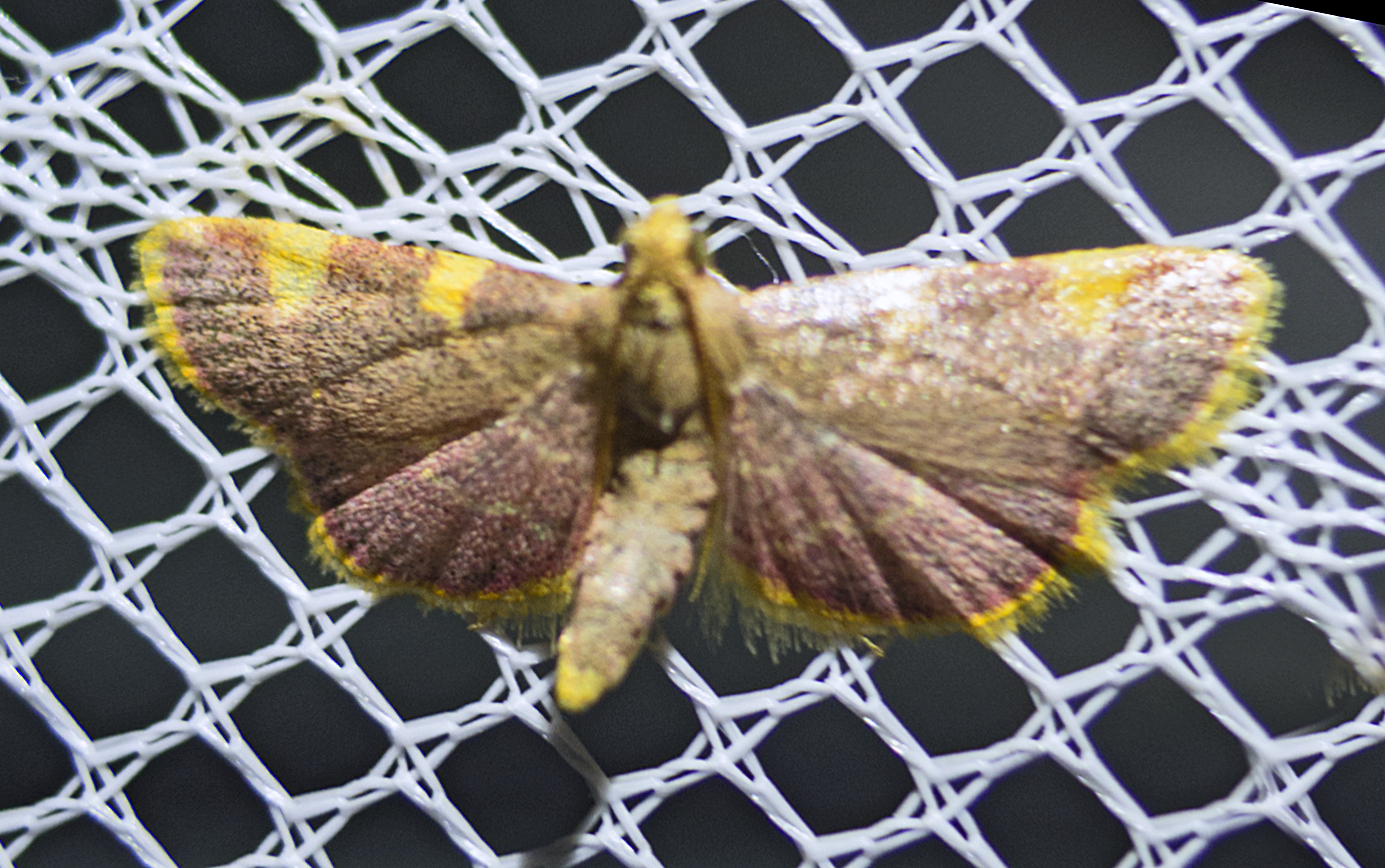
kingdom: Animalia
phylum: Arthropoda
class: Insecta
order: Lepidoptera
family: Pyralidae
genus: Hypsopygia
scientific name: Hypsopygia costalis
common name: Gold triangle
